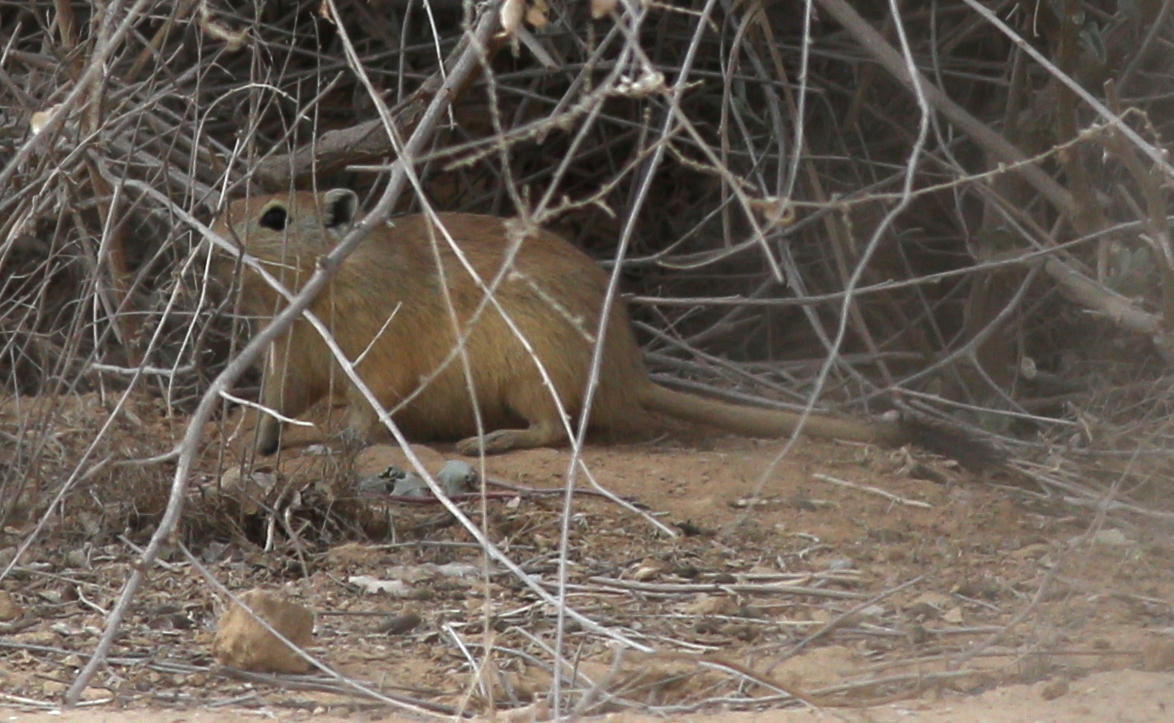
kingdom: Animalia
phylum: Chordata
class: Mammalia
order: Rodentia
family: Muridae
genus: Psammomys
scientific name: Psammomys obesus
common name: Fat sand rat
